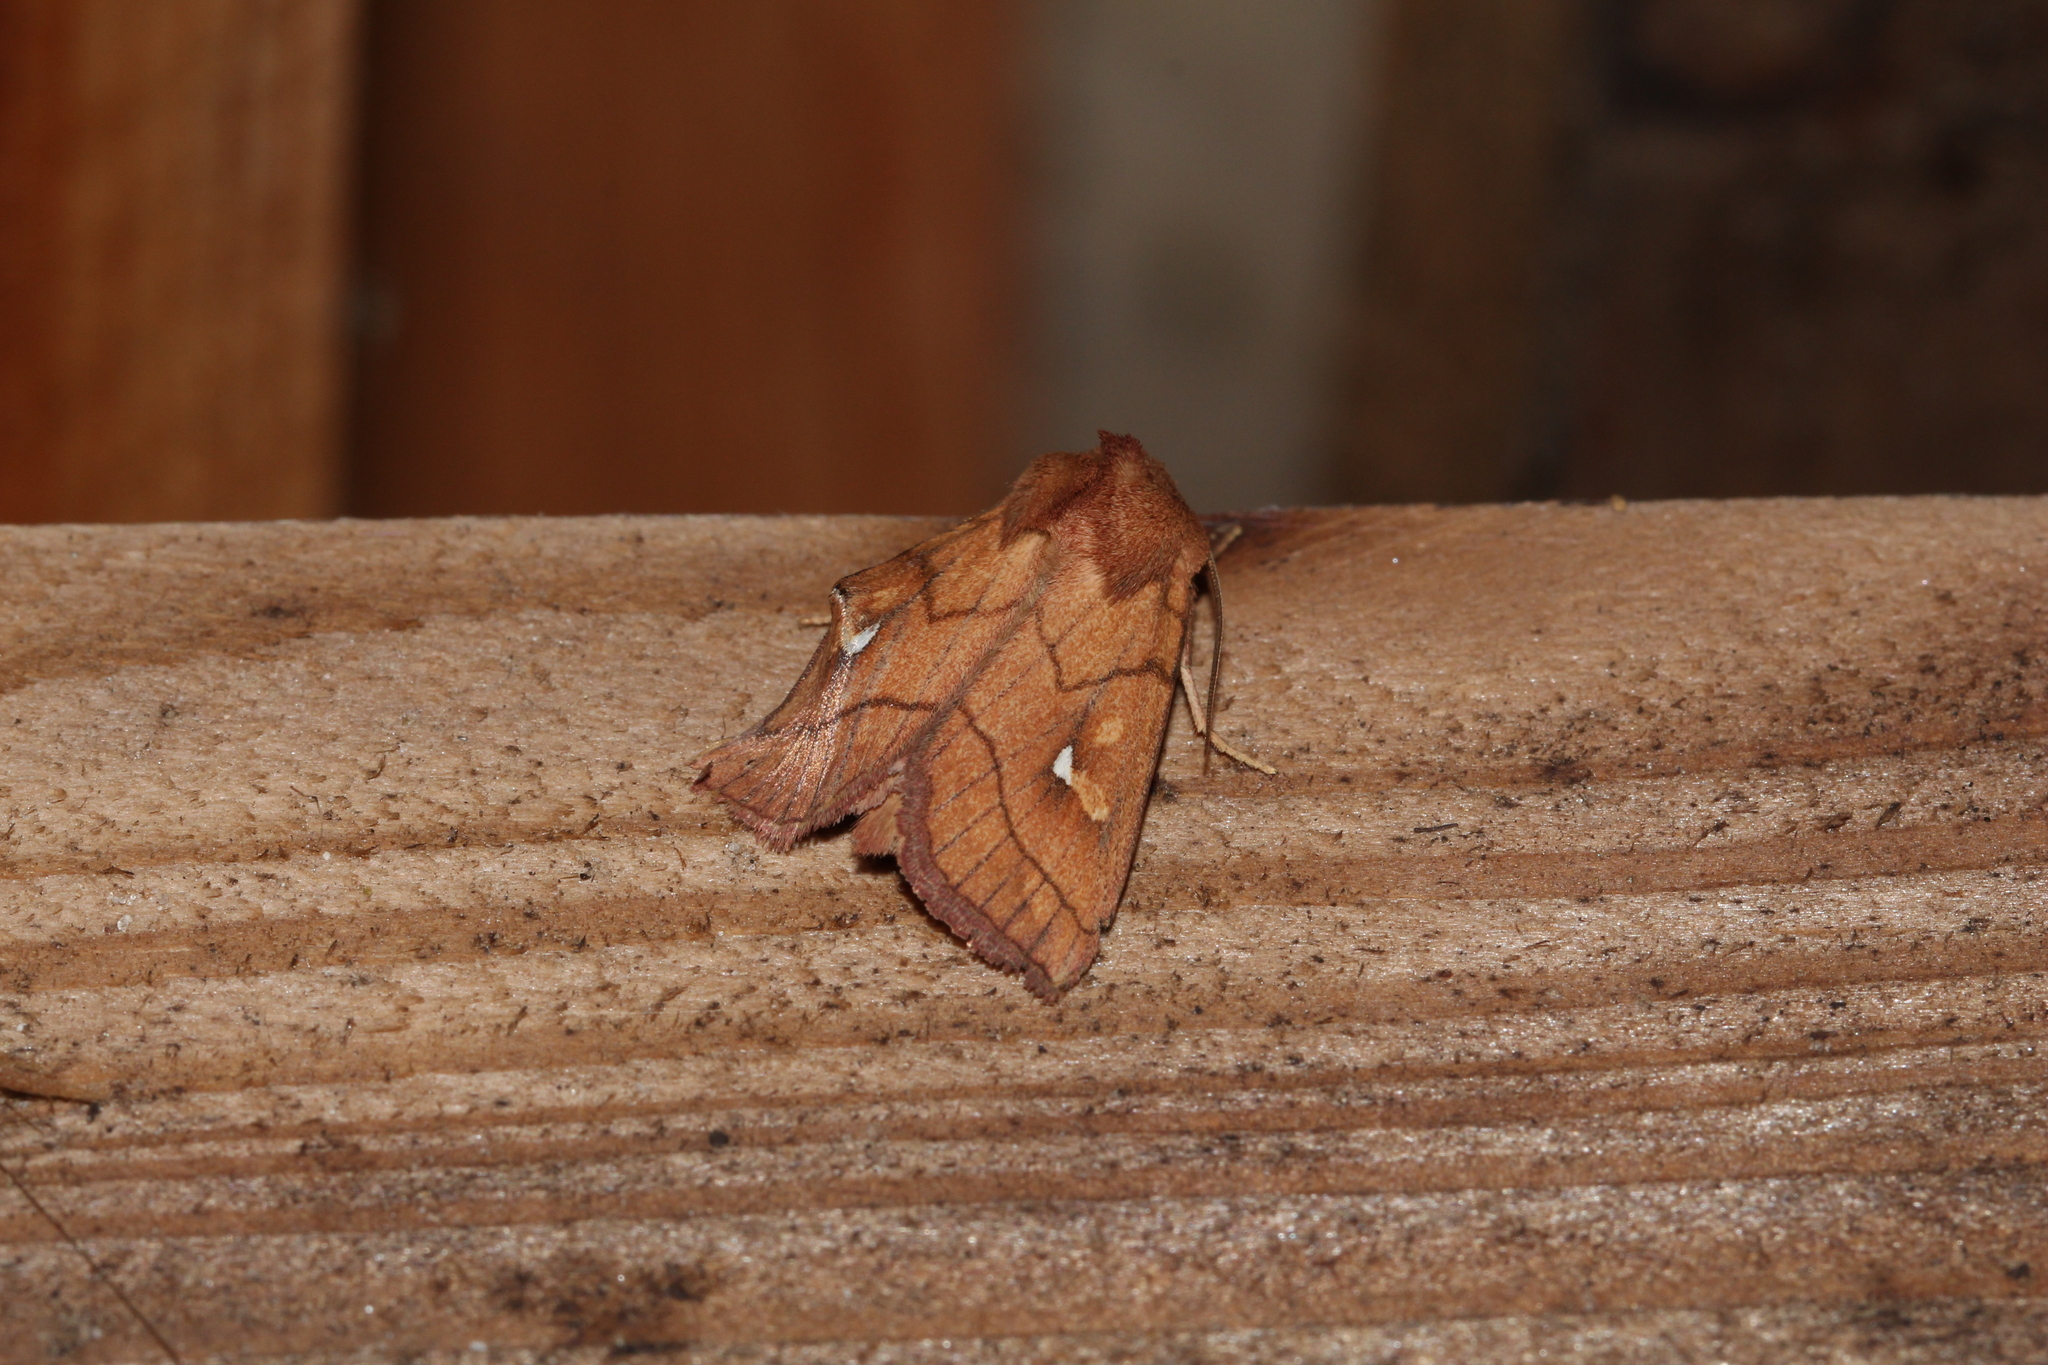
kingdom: Animalia
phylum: Arthropoda
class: Insecta
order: Lepidoptera
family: Noctuidae
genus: Mythimna
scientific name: Mythimna conigera
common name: Brown-line bright-eye
